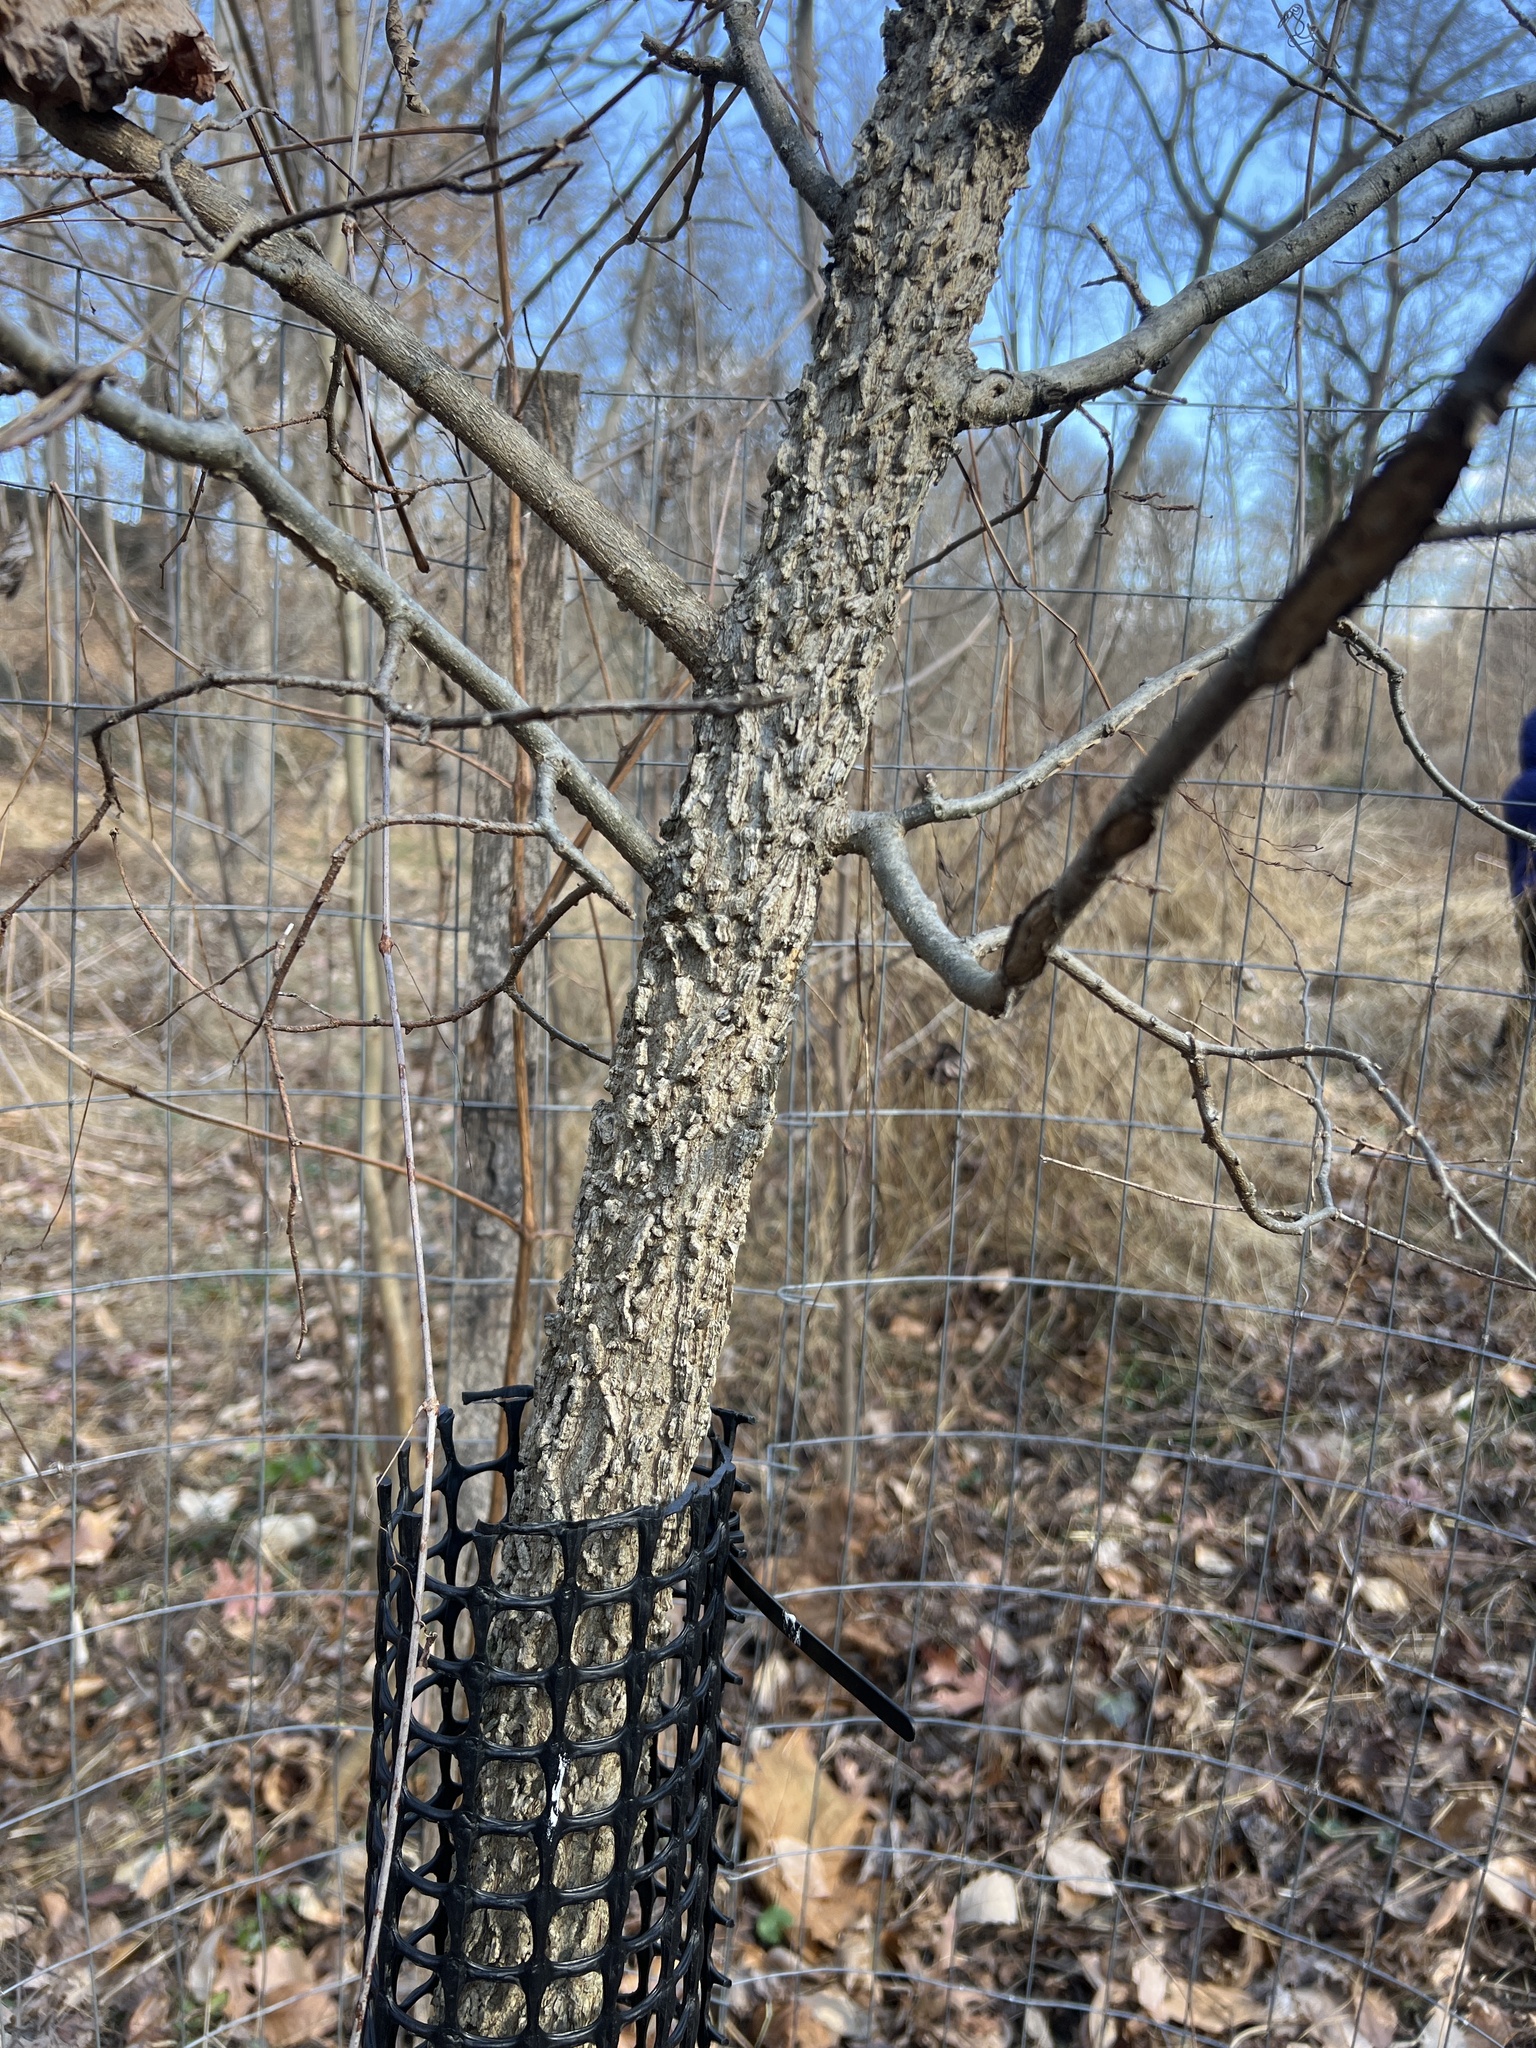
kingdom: Plantae
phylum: Tracheophyta
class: Magnoliopsida
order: Rosales
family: Cannabaceae
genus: Celtis
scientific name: Celtis occidentalis
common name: Common hackberry
